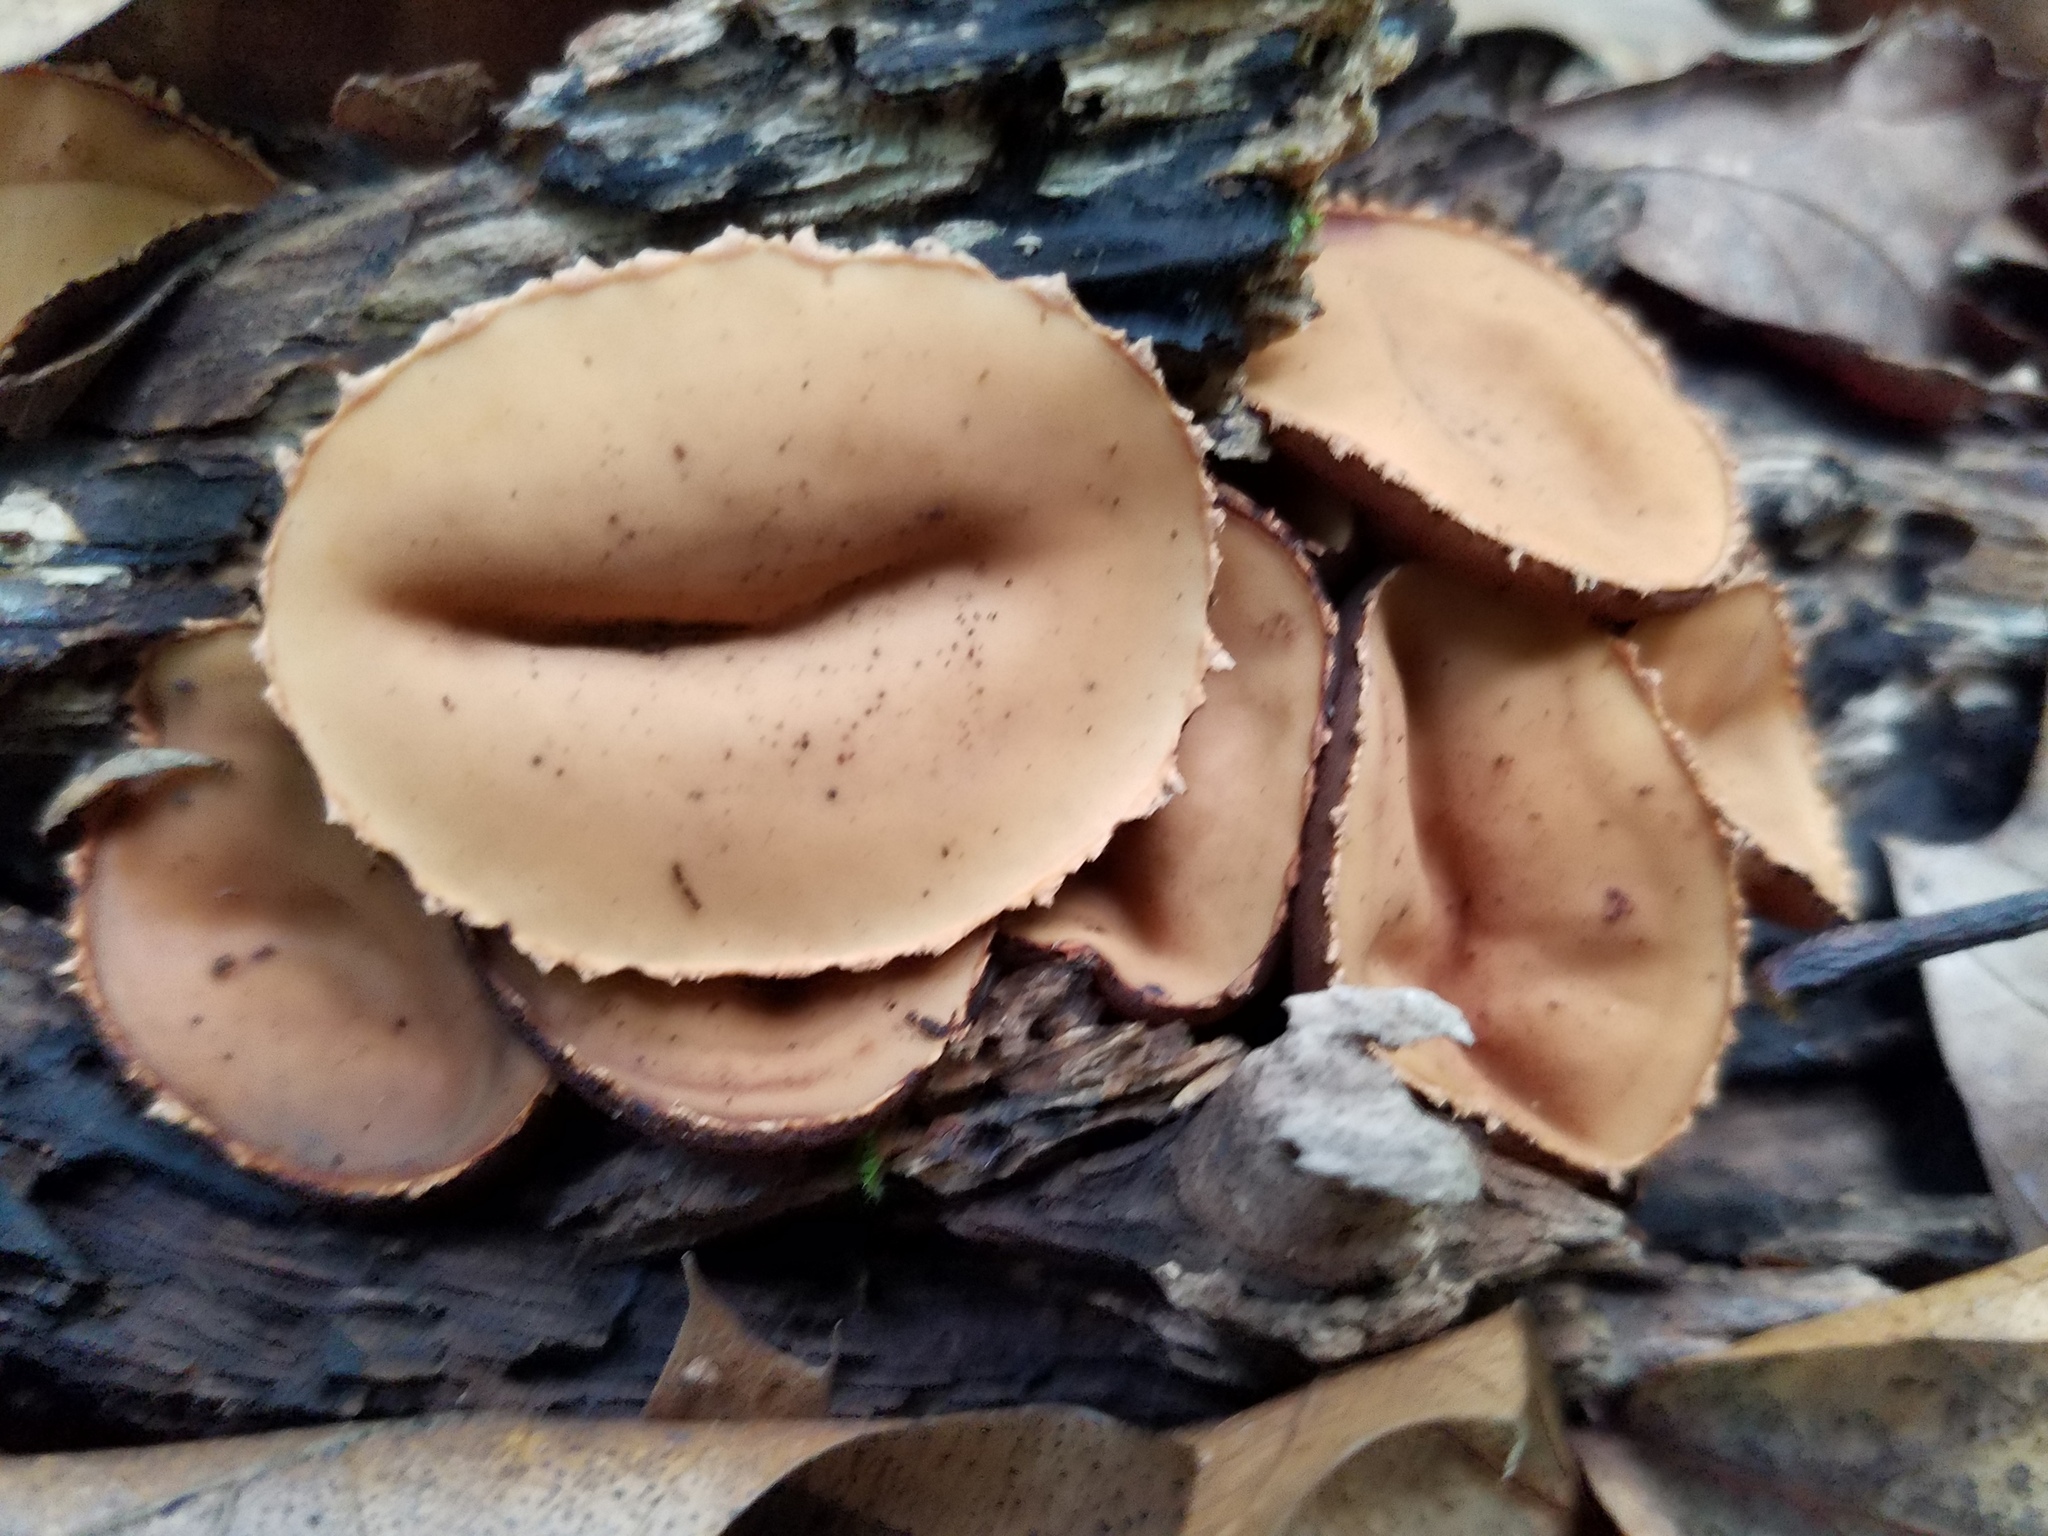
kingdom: Fungi
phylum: Ascomycota
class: Pezizomycetes
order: Pezizales
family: Sarcosomataceae
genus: Galiella
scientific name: Galiella rufa
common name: Hairy rubber cup
